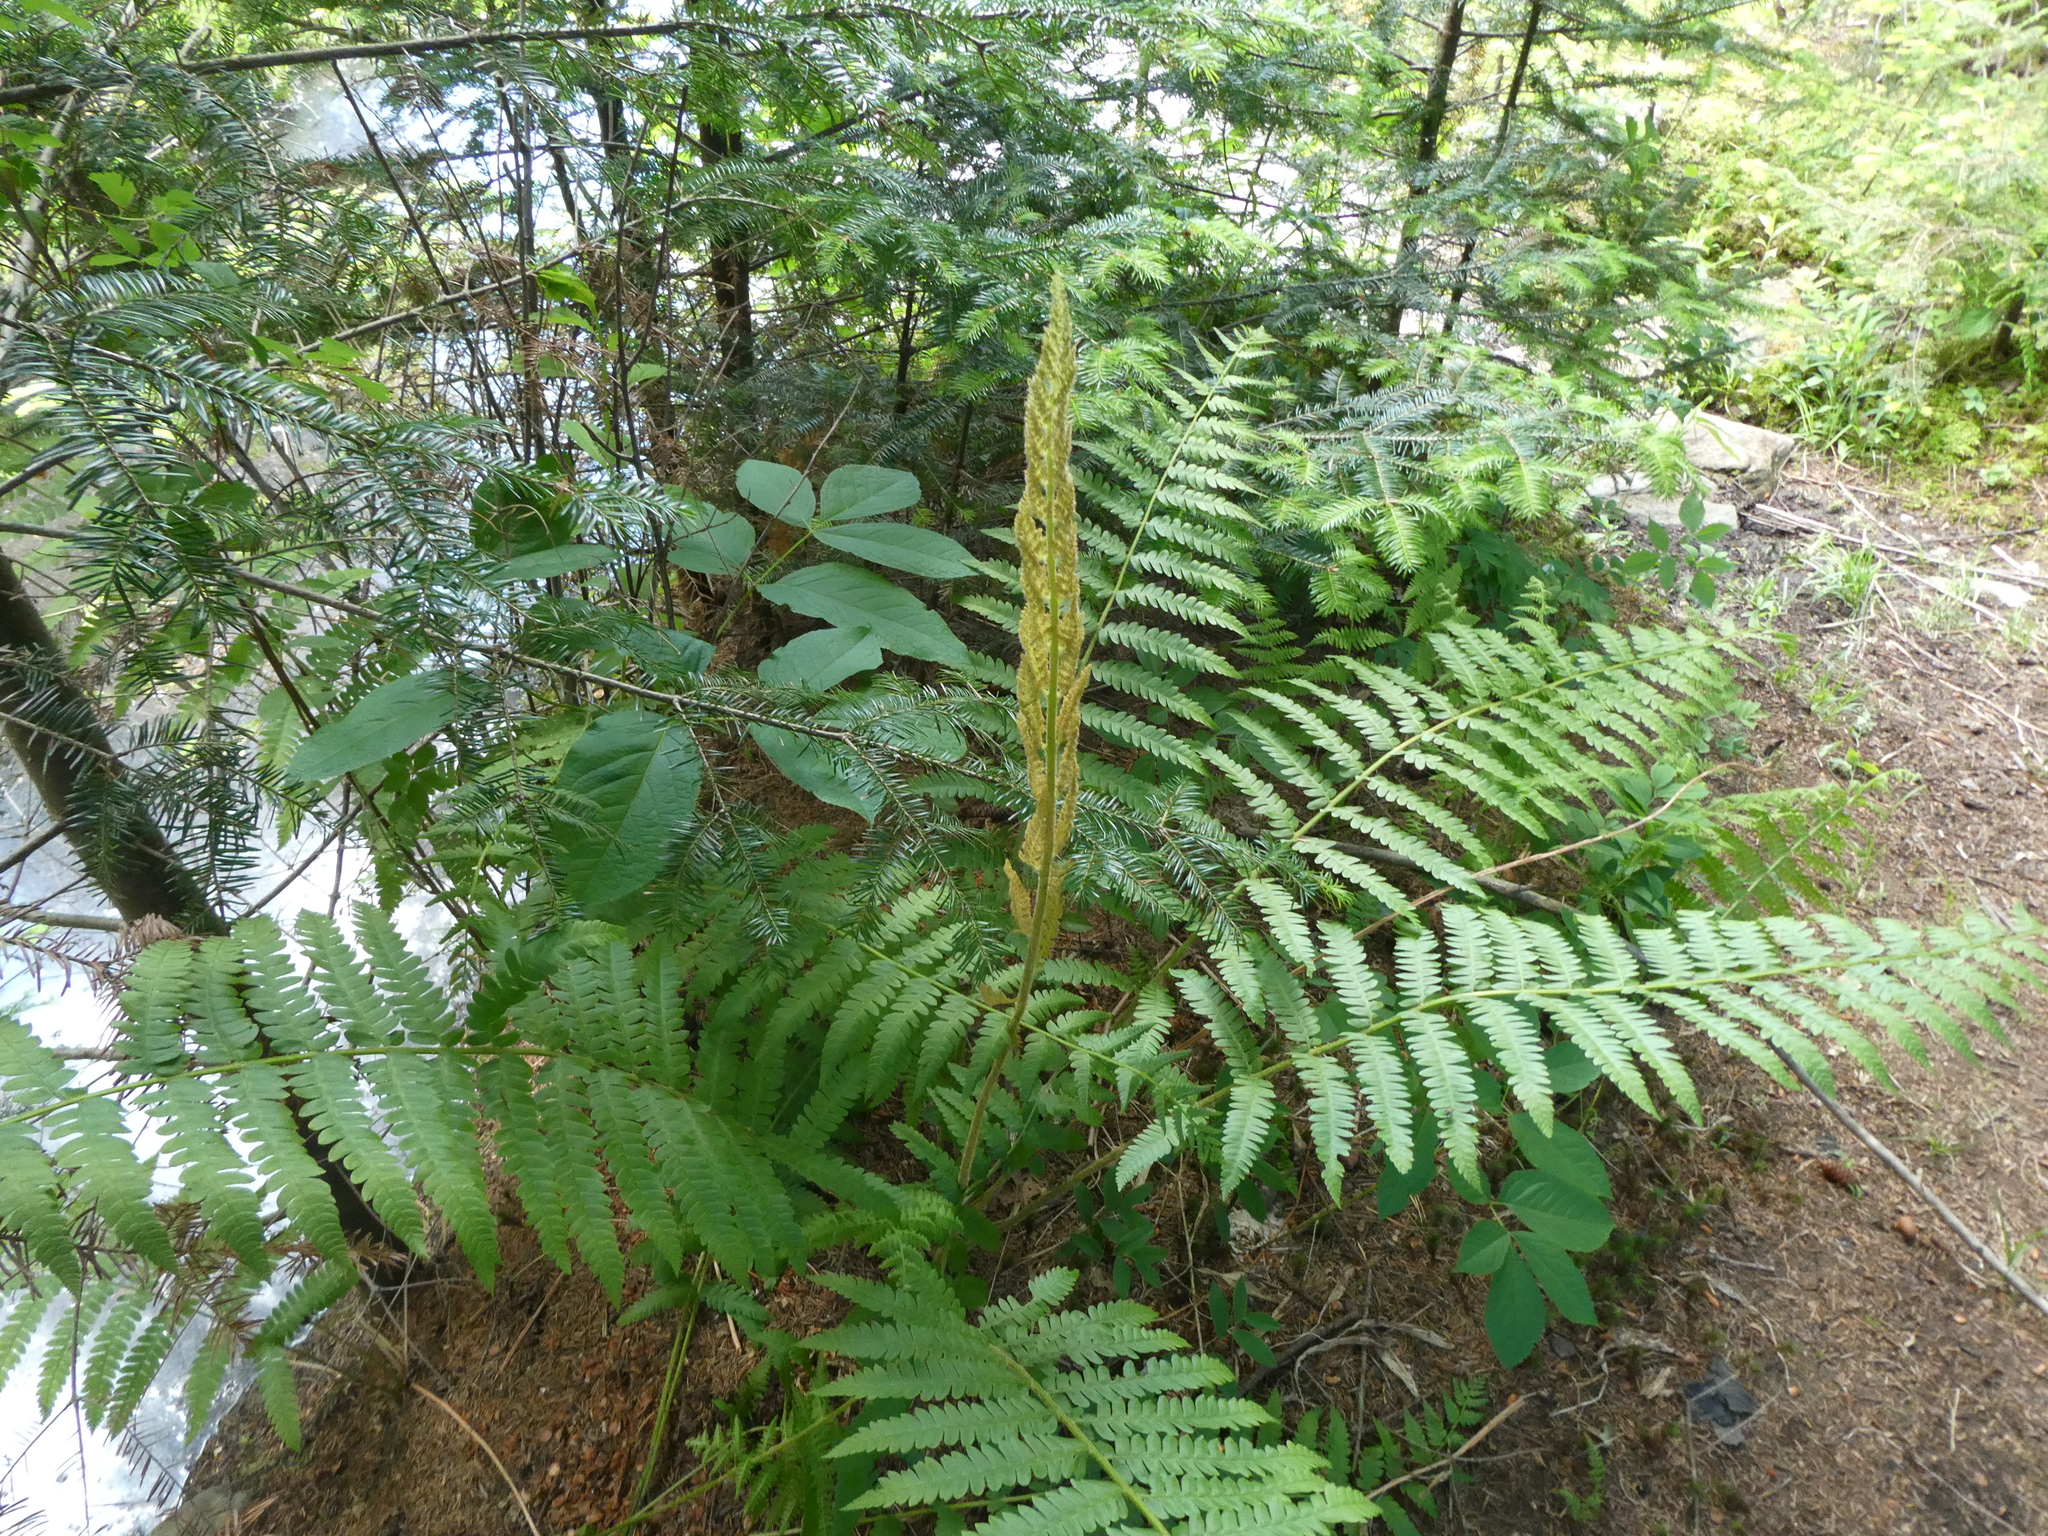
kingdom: Plantae
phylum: Tracheophyta
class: Polypodiopsida
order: Osmundales
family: Osmundaceae
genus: Osmundastrum
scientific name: Osmundastrum cinnamomeum
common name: Cinnamon fern
